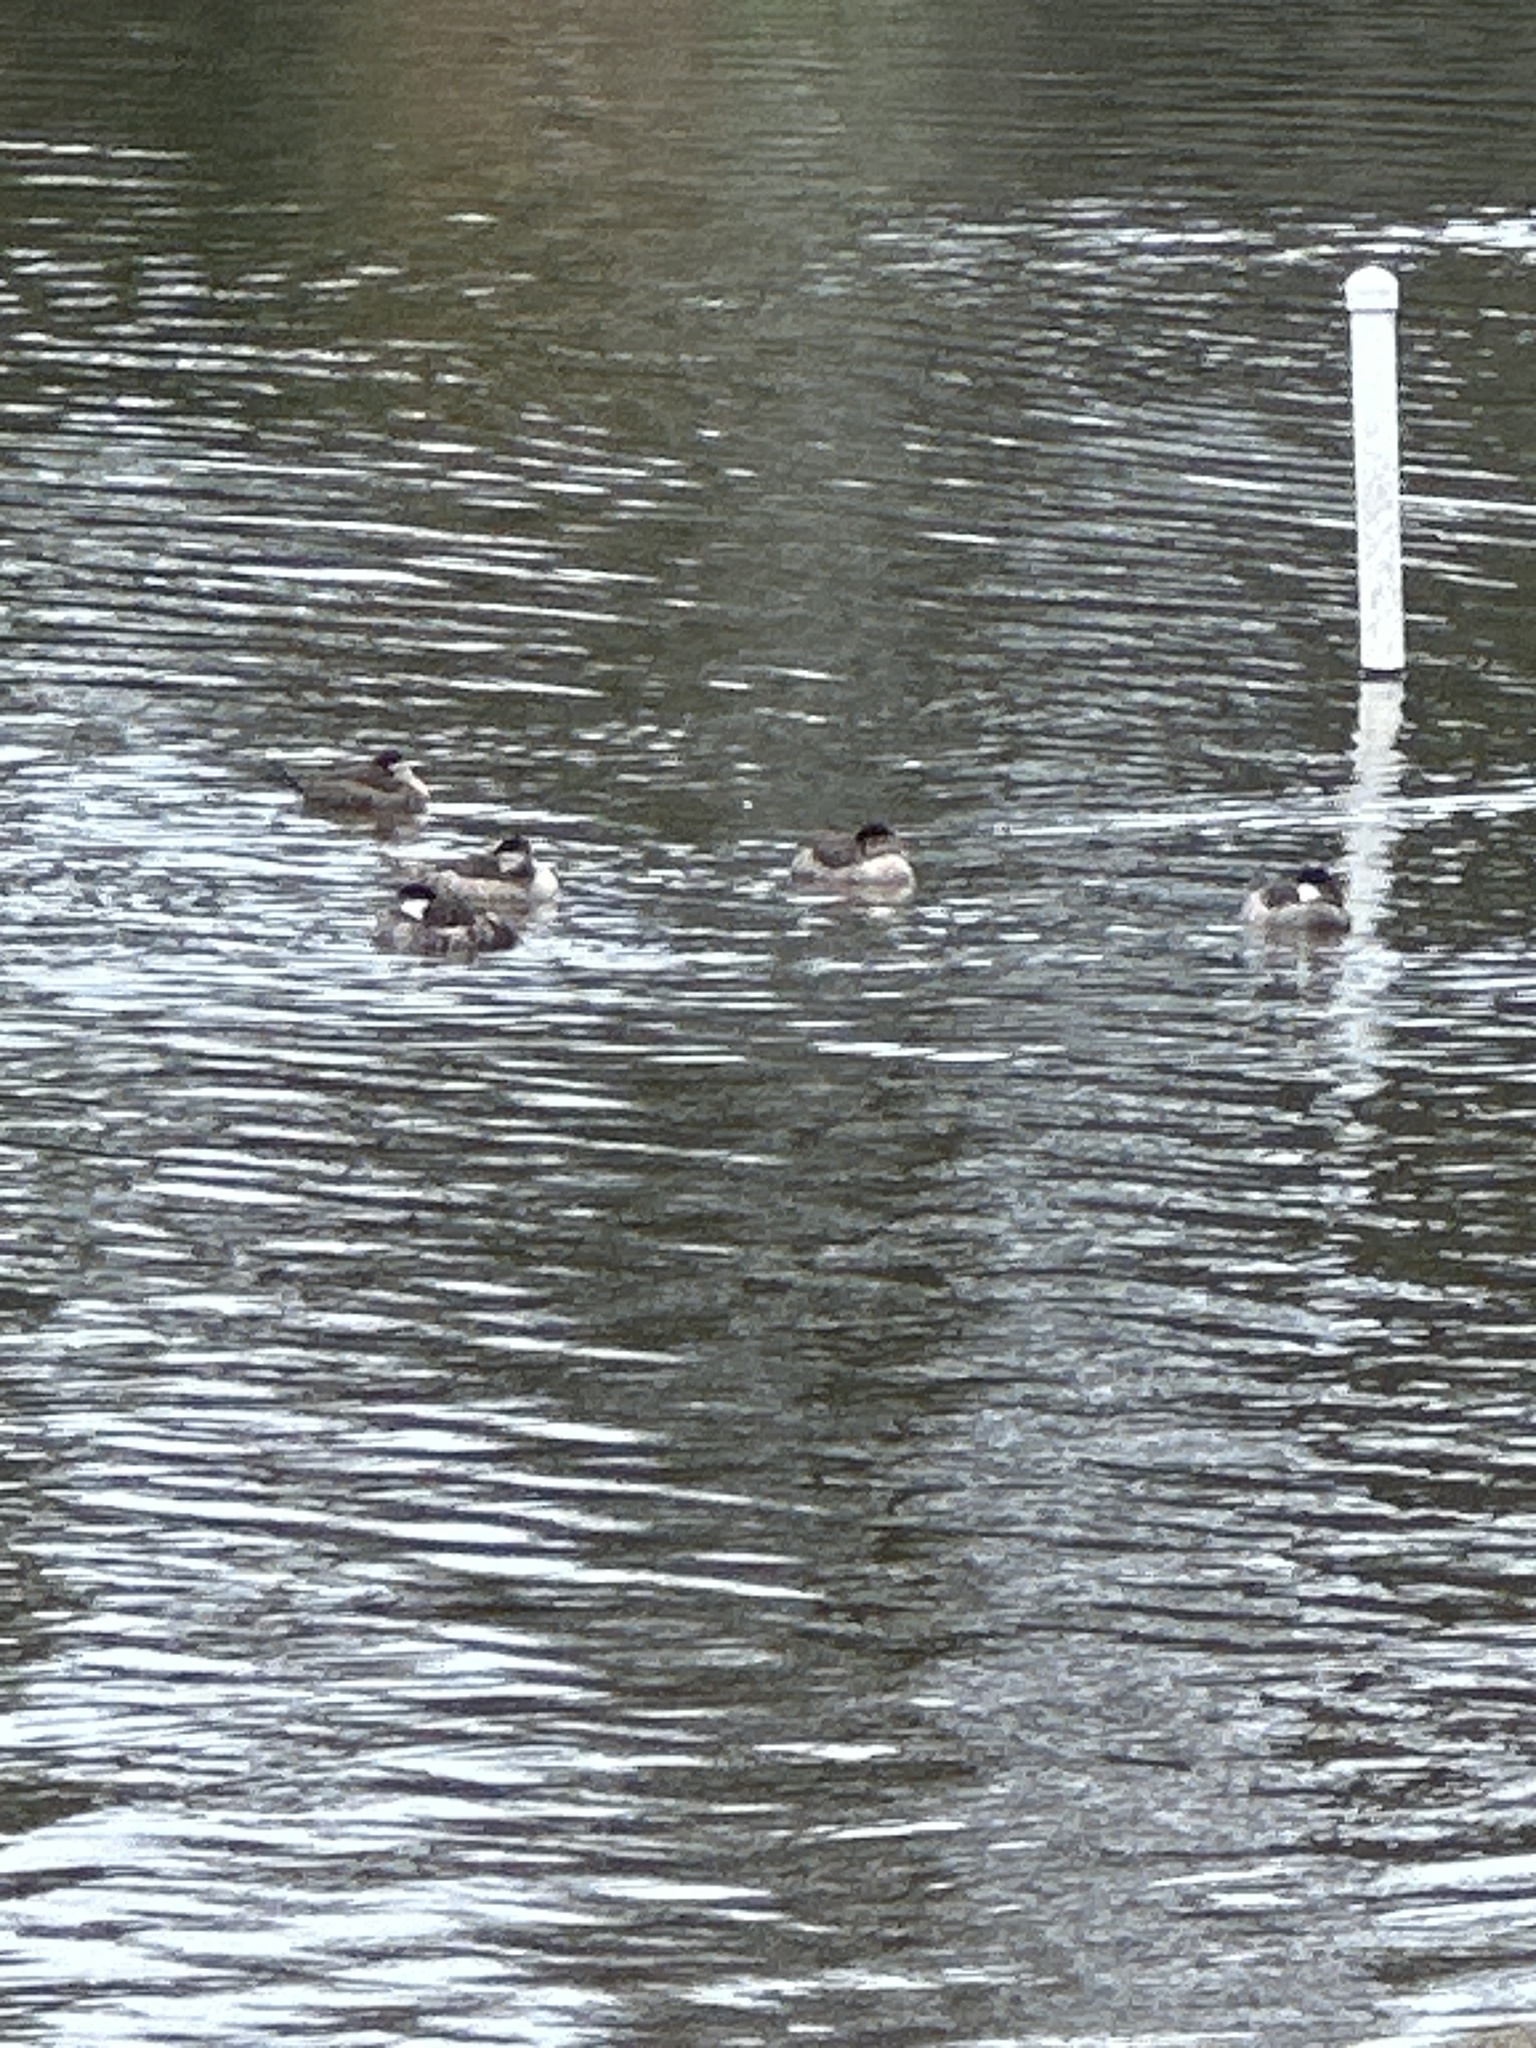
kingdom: Animalia
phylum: Chordata
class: Aves
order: Anseriformes
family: Anatidae
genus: Oxyura
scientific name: Oxyura jamaicensis
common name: Ruddy duck
